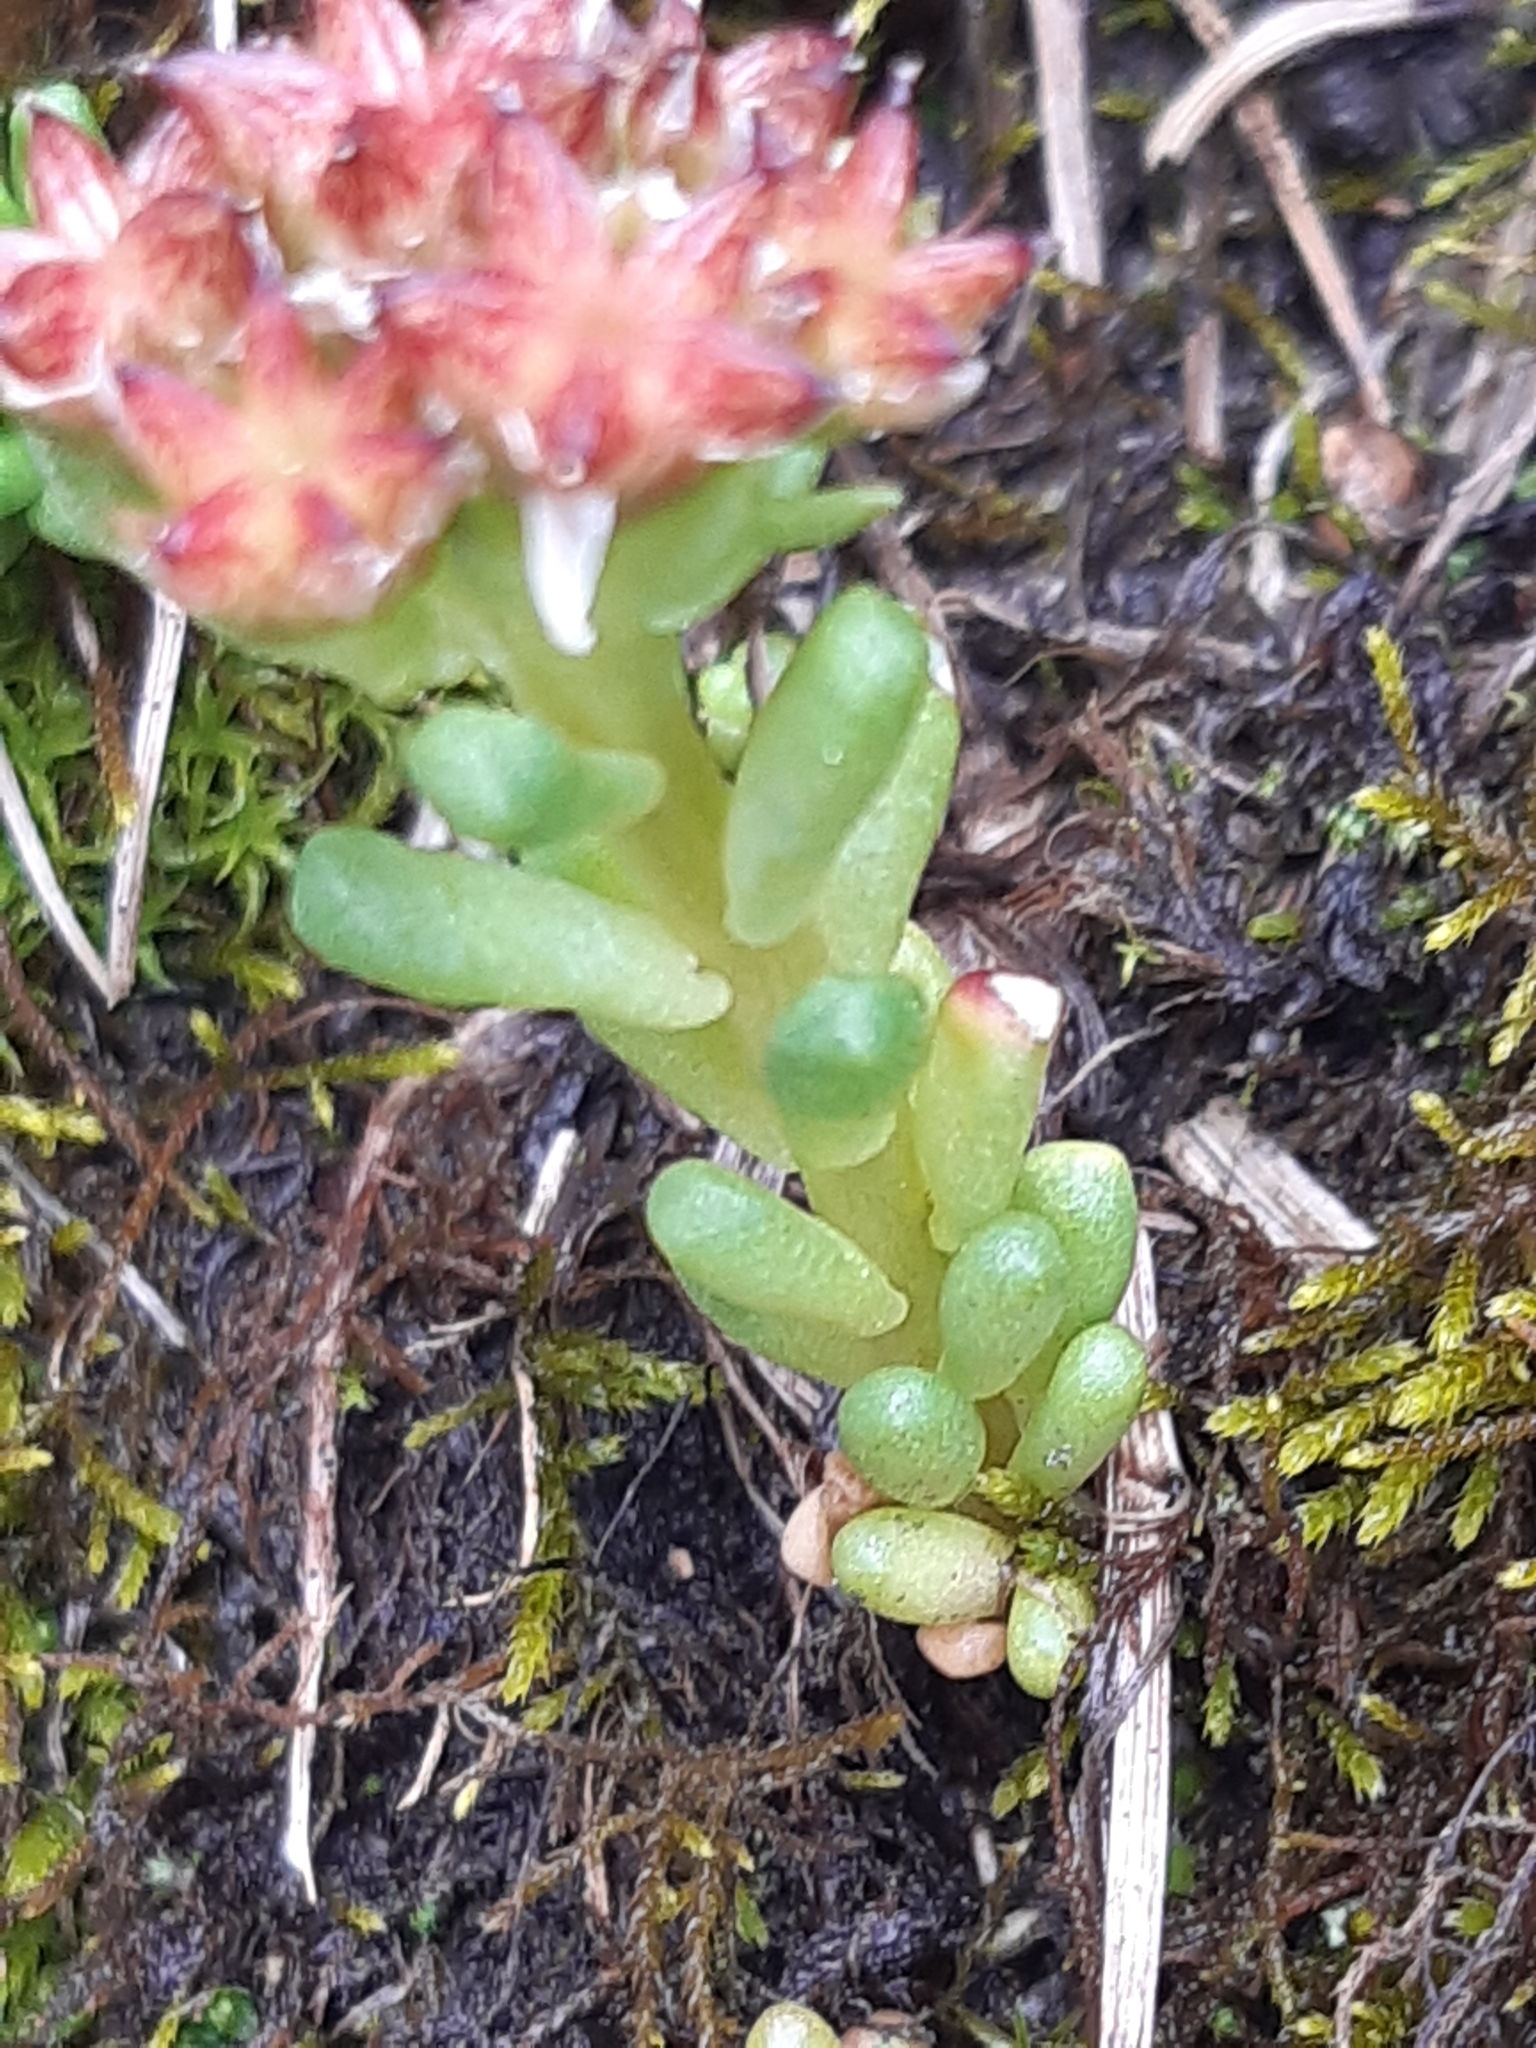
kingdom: Plantae
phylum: Tracheophyta
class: Magnoliopsida
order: Saxifragales
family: Crassulaceae
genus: Sedum
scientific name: Sedum atratum
